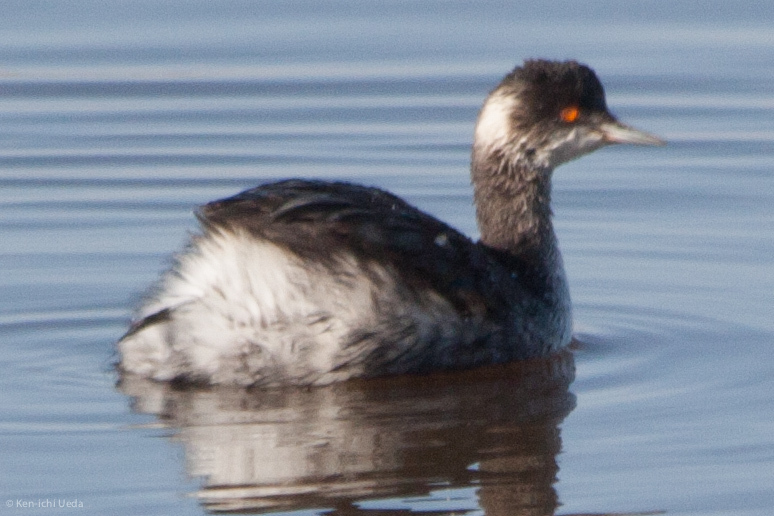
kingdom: Animalia
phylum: Chordata
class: Aves
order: Podicipediformes
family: Podicipedidae
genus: Podiceps
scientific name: Podiceps nigricollis
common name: Black-necked grebe
